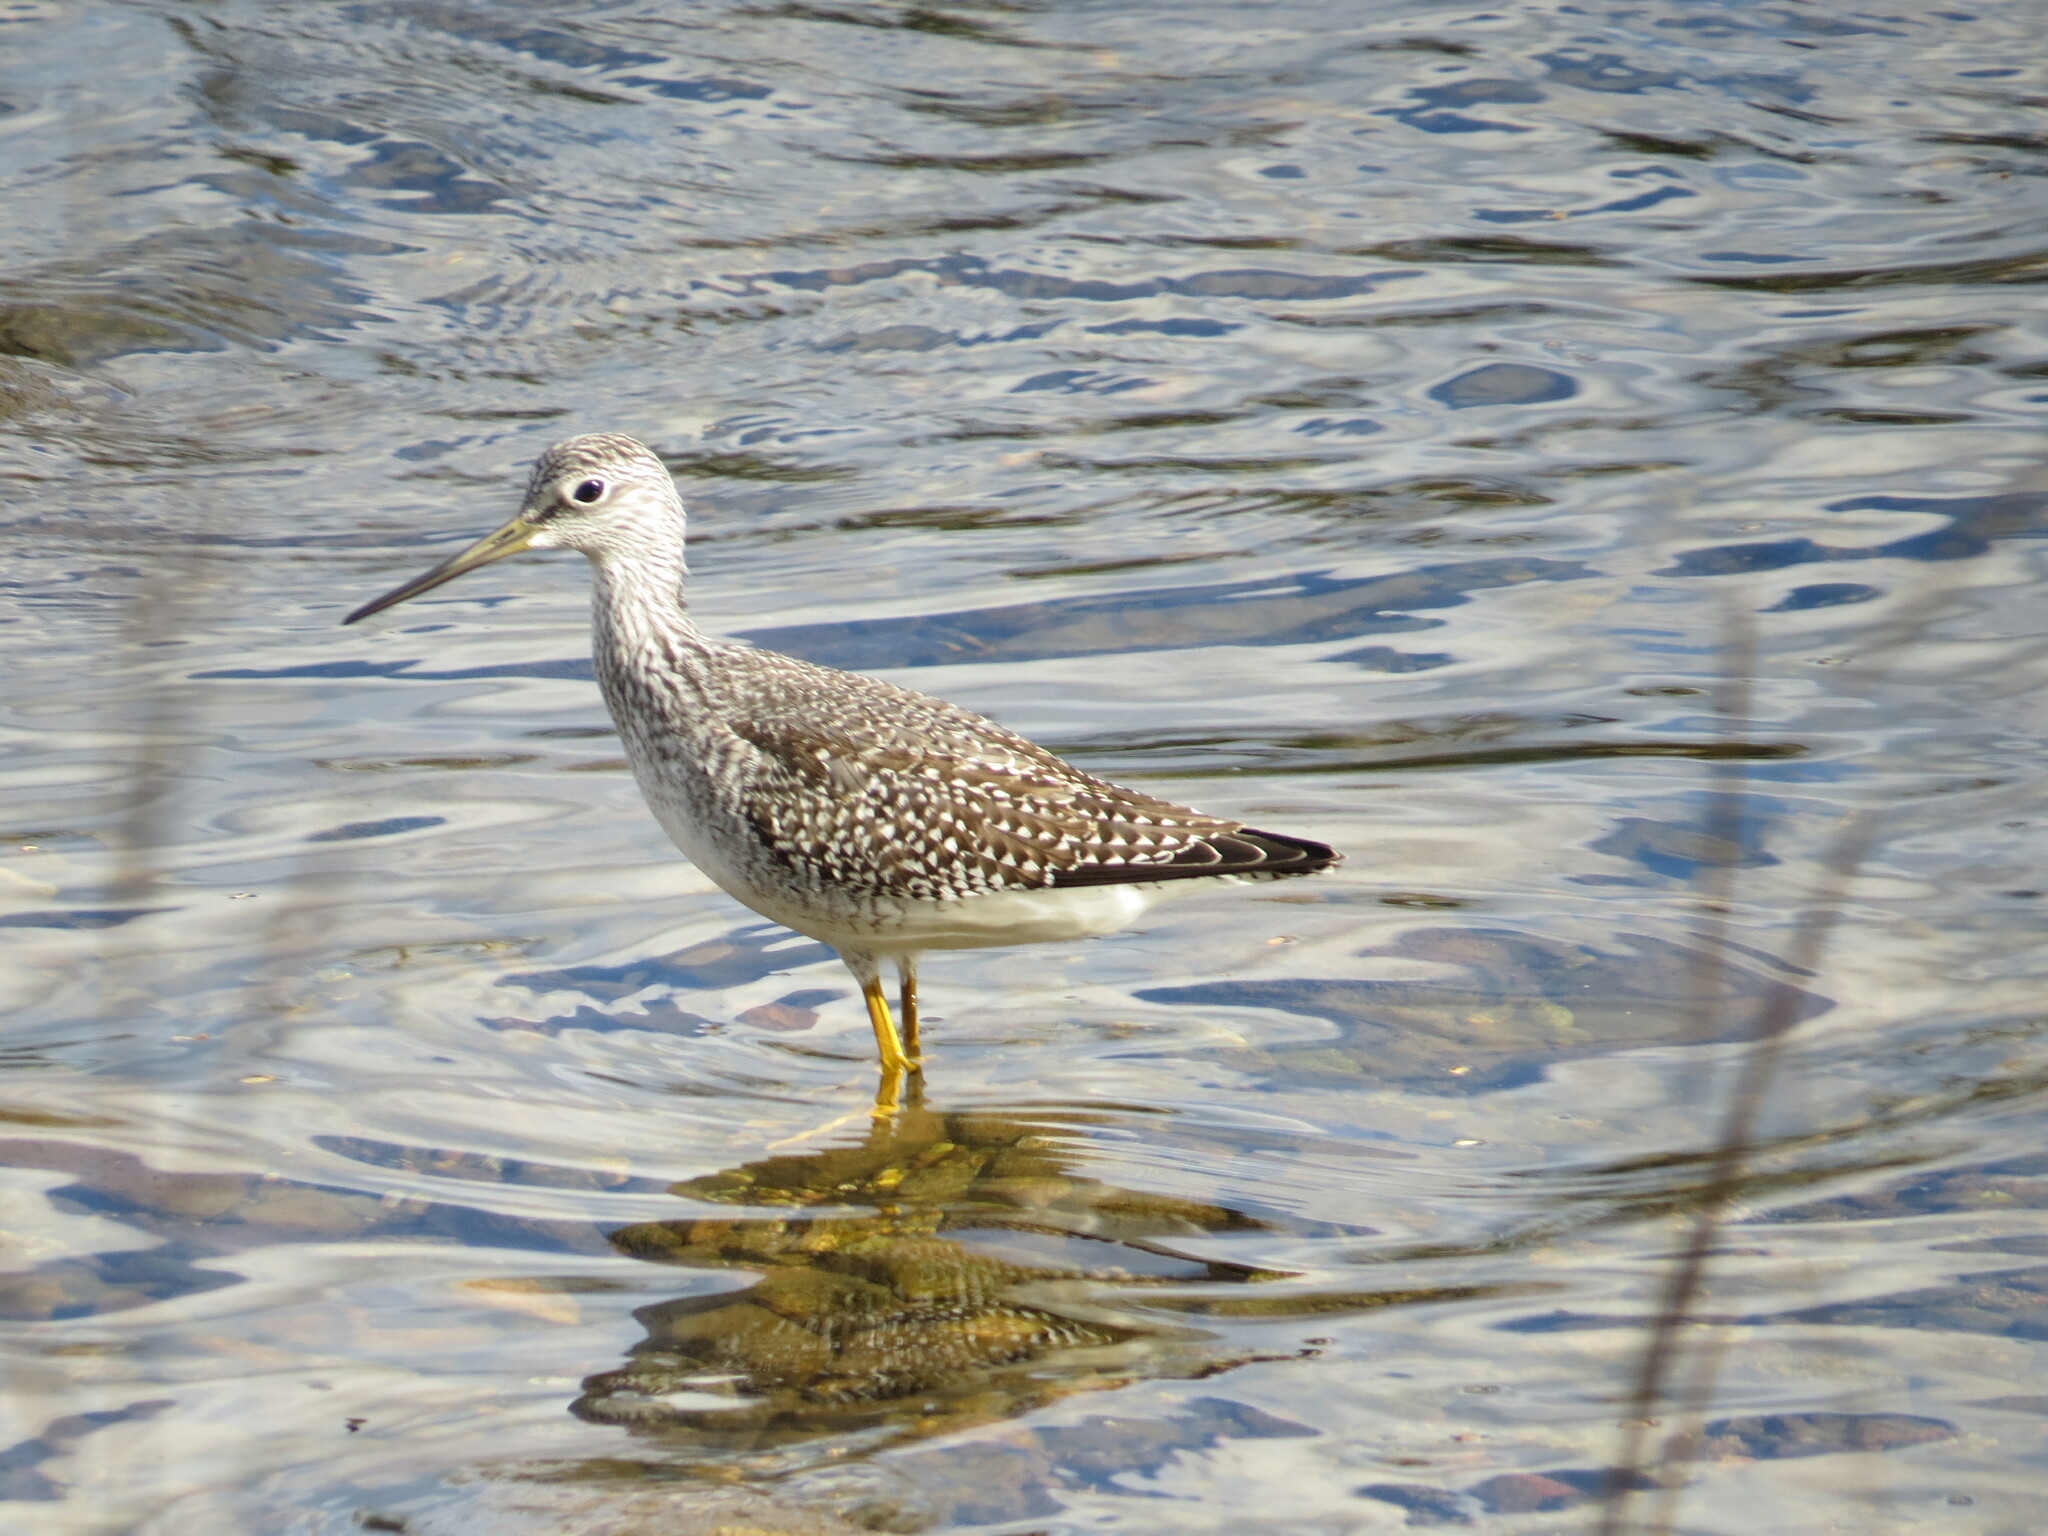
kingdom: Animalia
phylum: Chordata
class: Aves
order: Charadriiformes
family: Scolopacidae
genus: Tringa
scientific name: Tringa melanoleuca
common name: Greater yellowlegs
